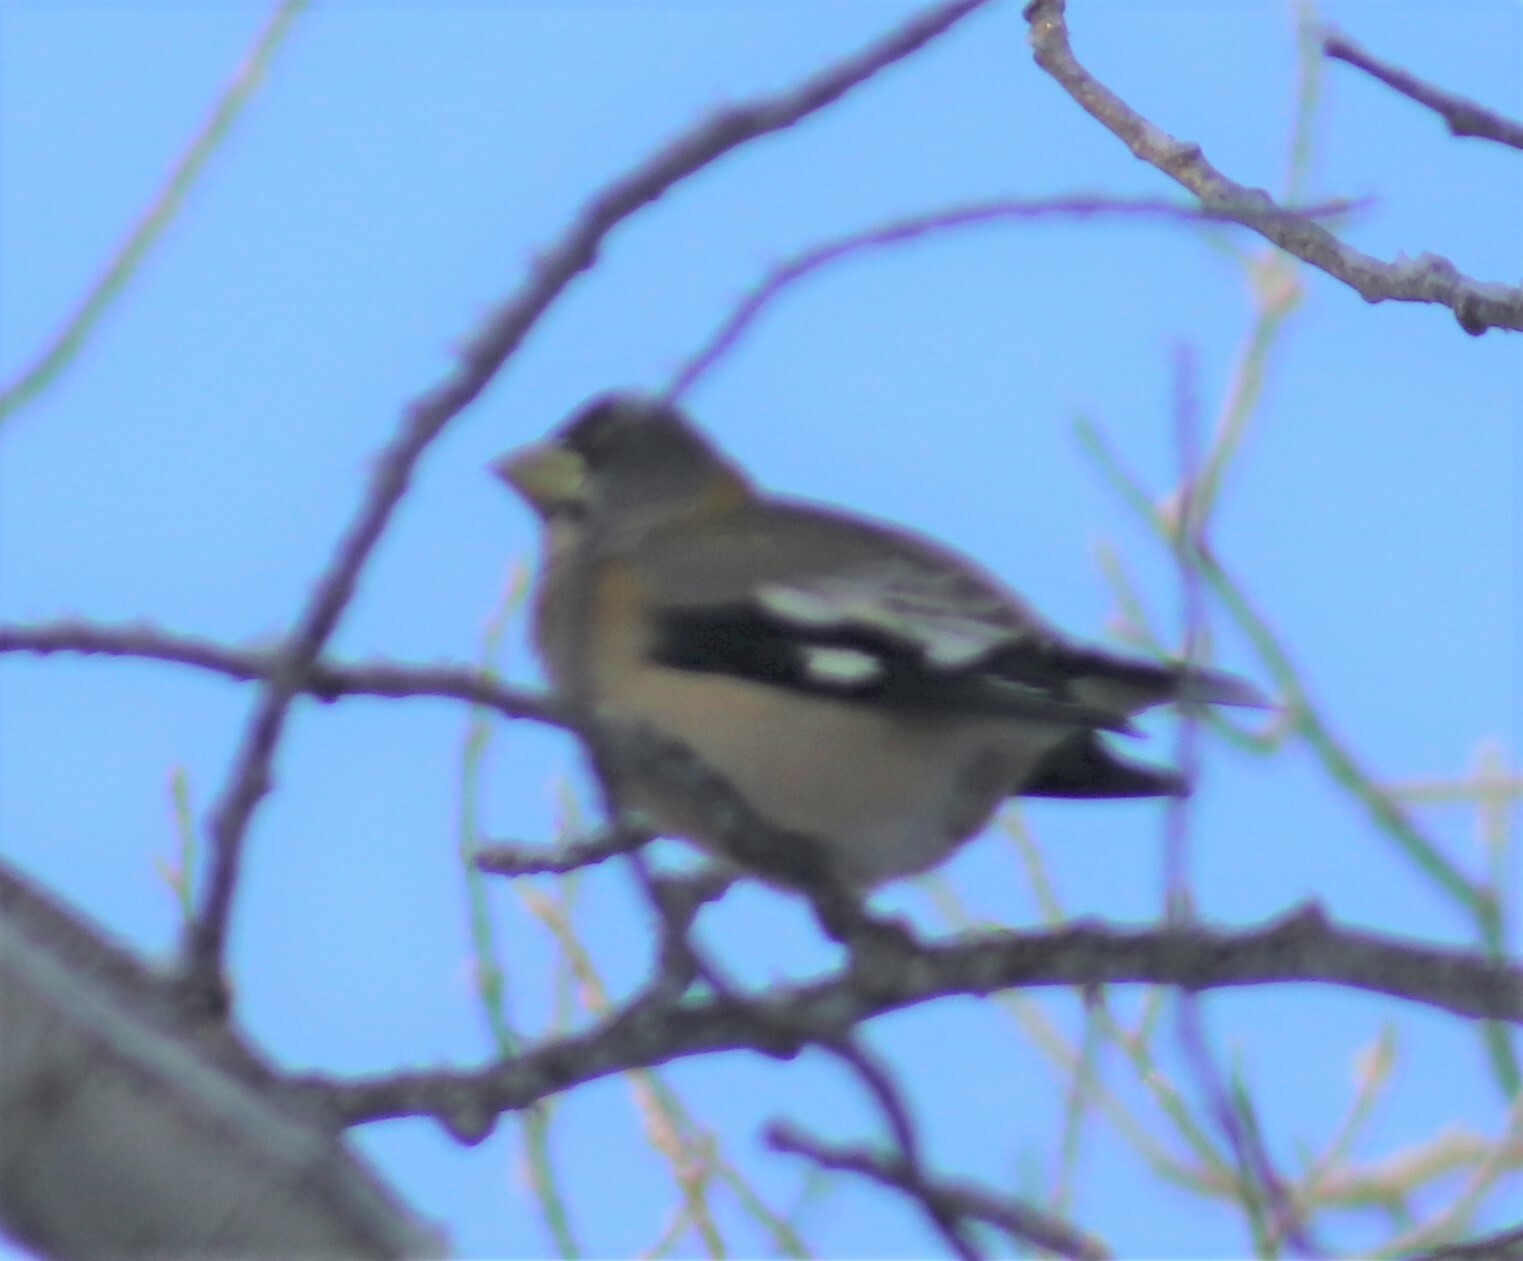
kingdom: Animalia
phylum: Chordata
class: Aves
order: Passeriformes
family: Fringillidae
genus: Hesperiphona
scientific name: Hesperiphona vespertina
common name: Evening grosbeak
